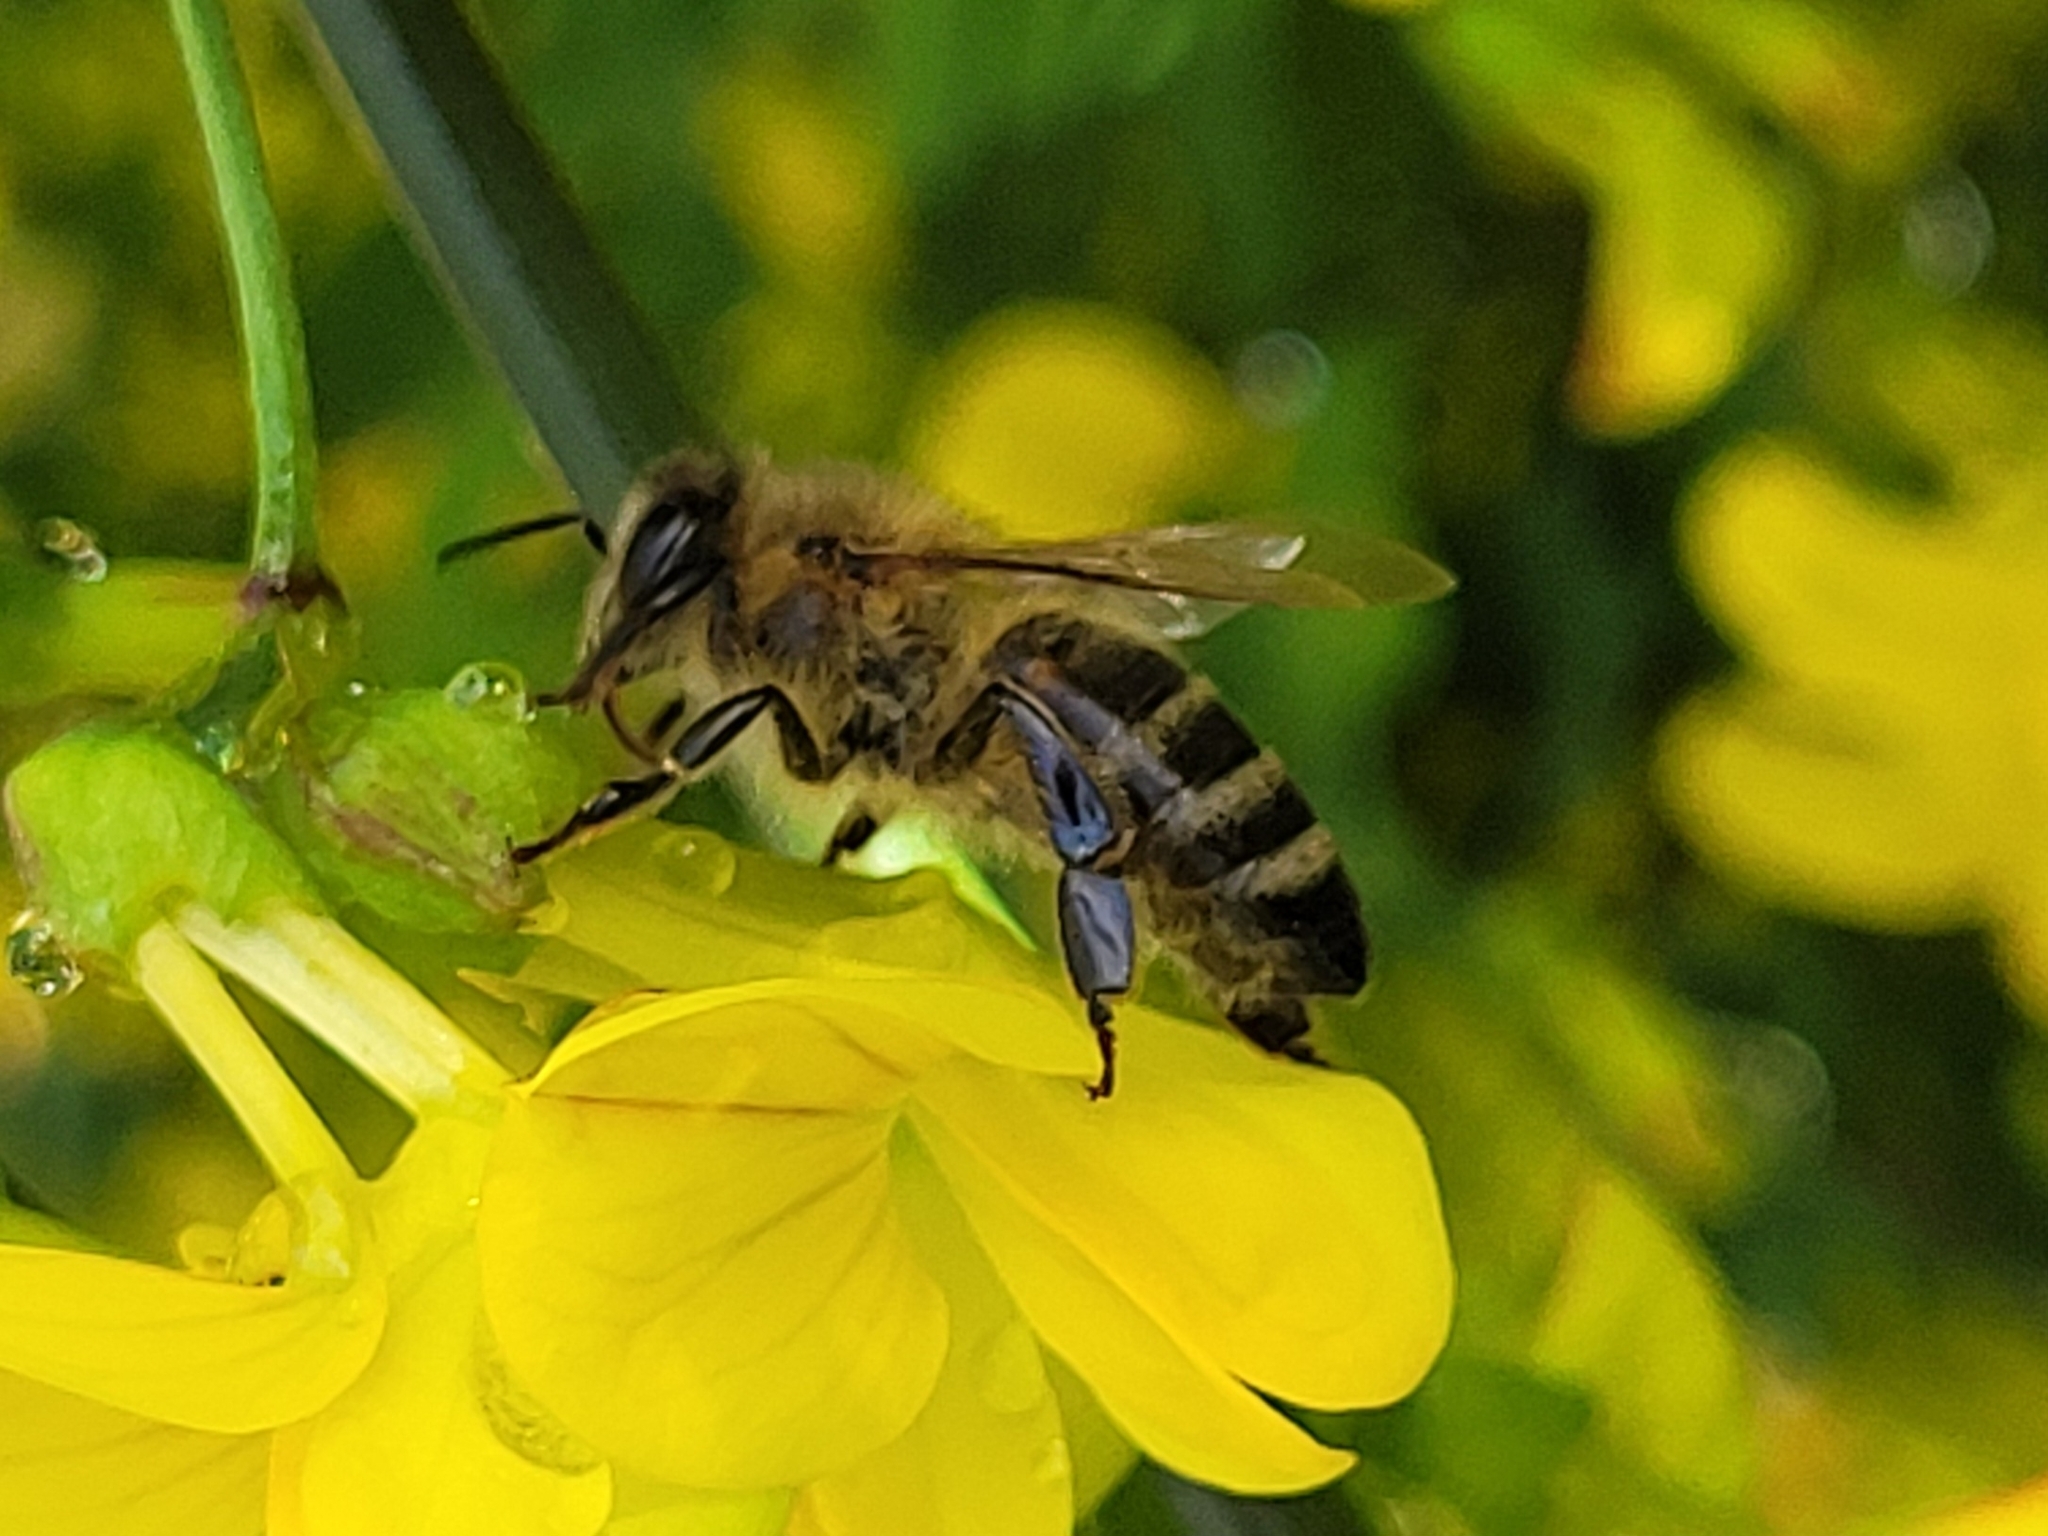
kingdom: Animalia
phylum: Arthropoda
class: Insecta
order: Hymenoptera
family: Apidae
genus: Apis
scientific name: Apis mellifera
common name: Honey bee
